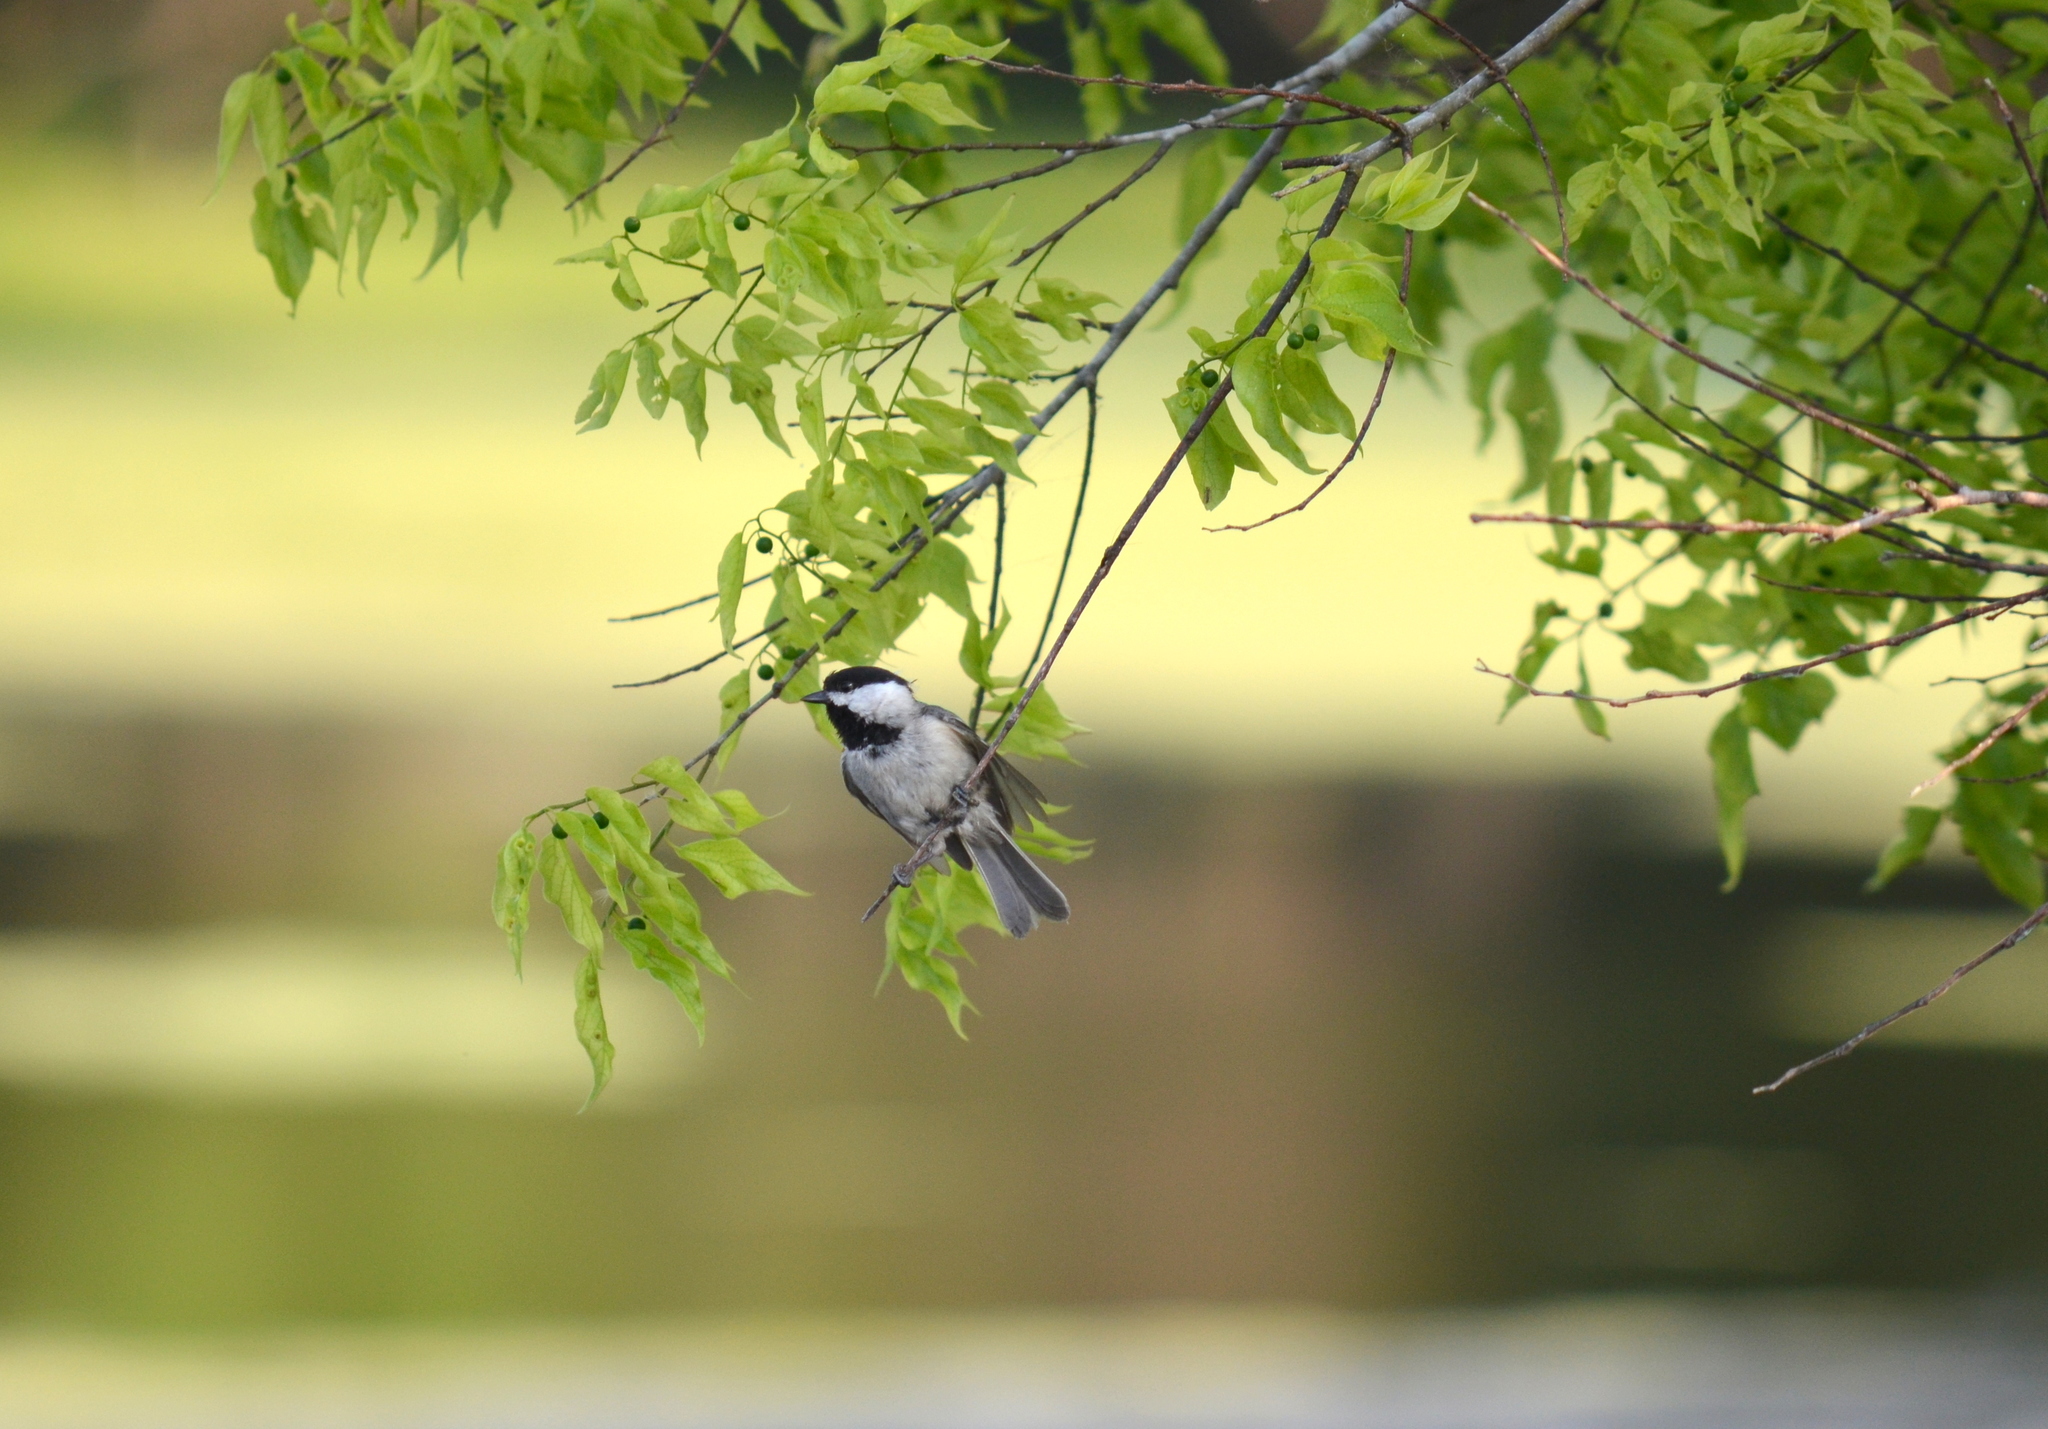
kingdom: Animalia
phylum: Chordata
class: Aves
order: Passeriformes
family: Paridae
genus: Poecile
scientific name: Poecile carolinensis
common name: Carolina chickadee
